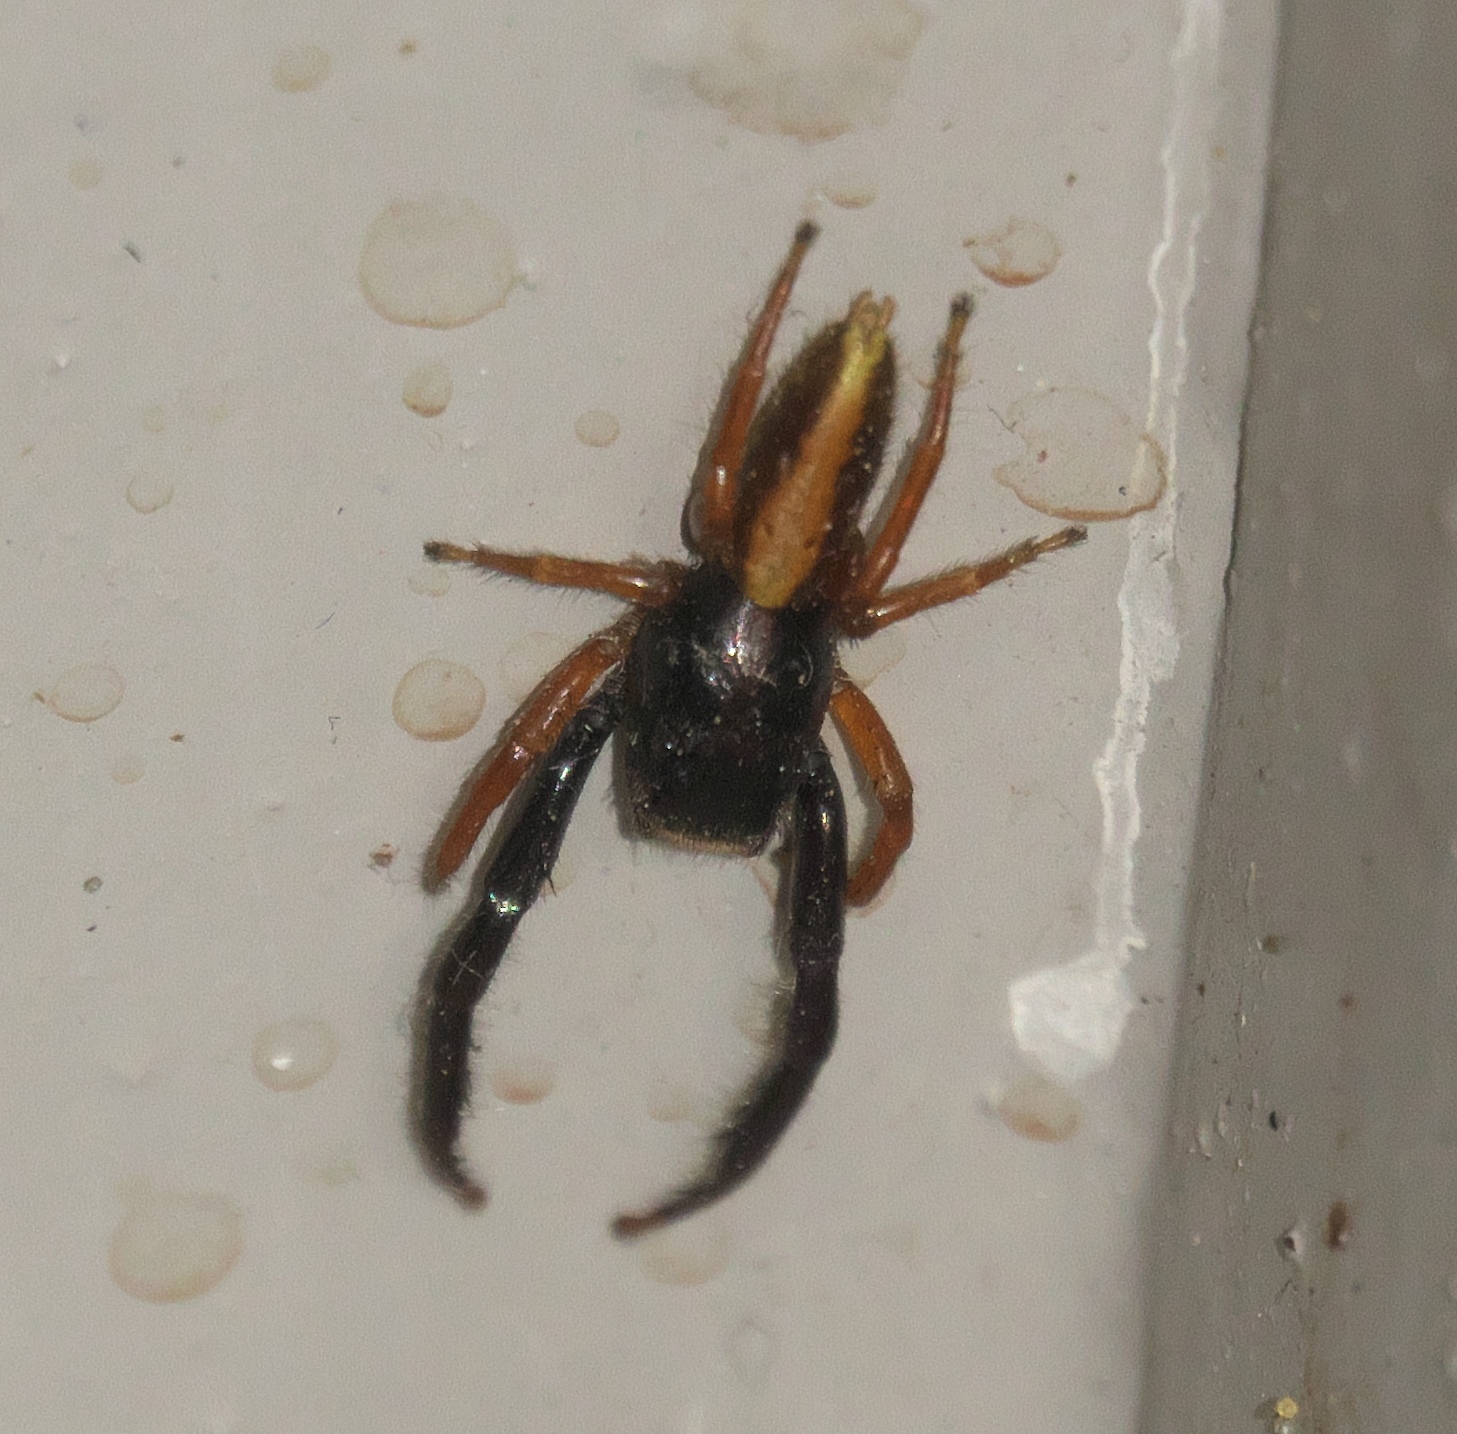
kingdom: Animalia
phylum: Arthropoda
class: Arachnida
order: Araneae
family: Salticidae
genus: Trite
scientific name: Trite planiceps
